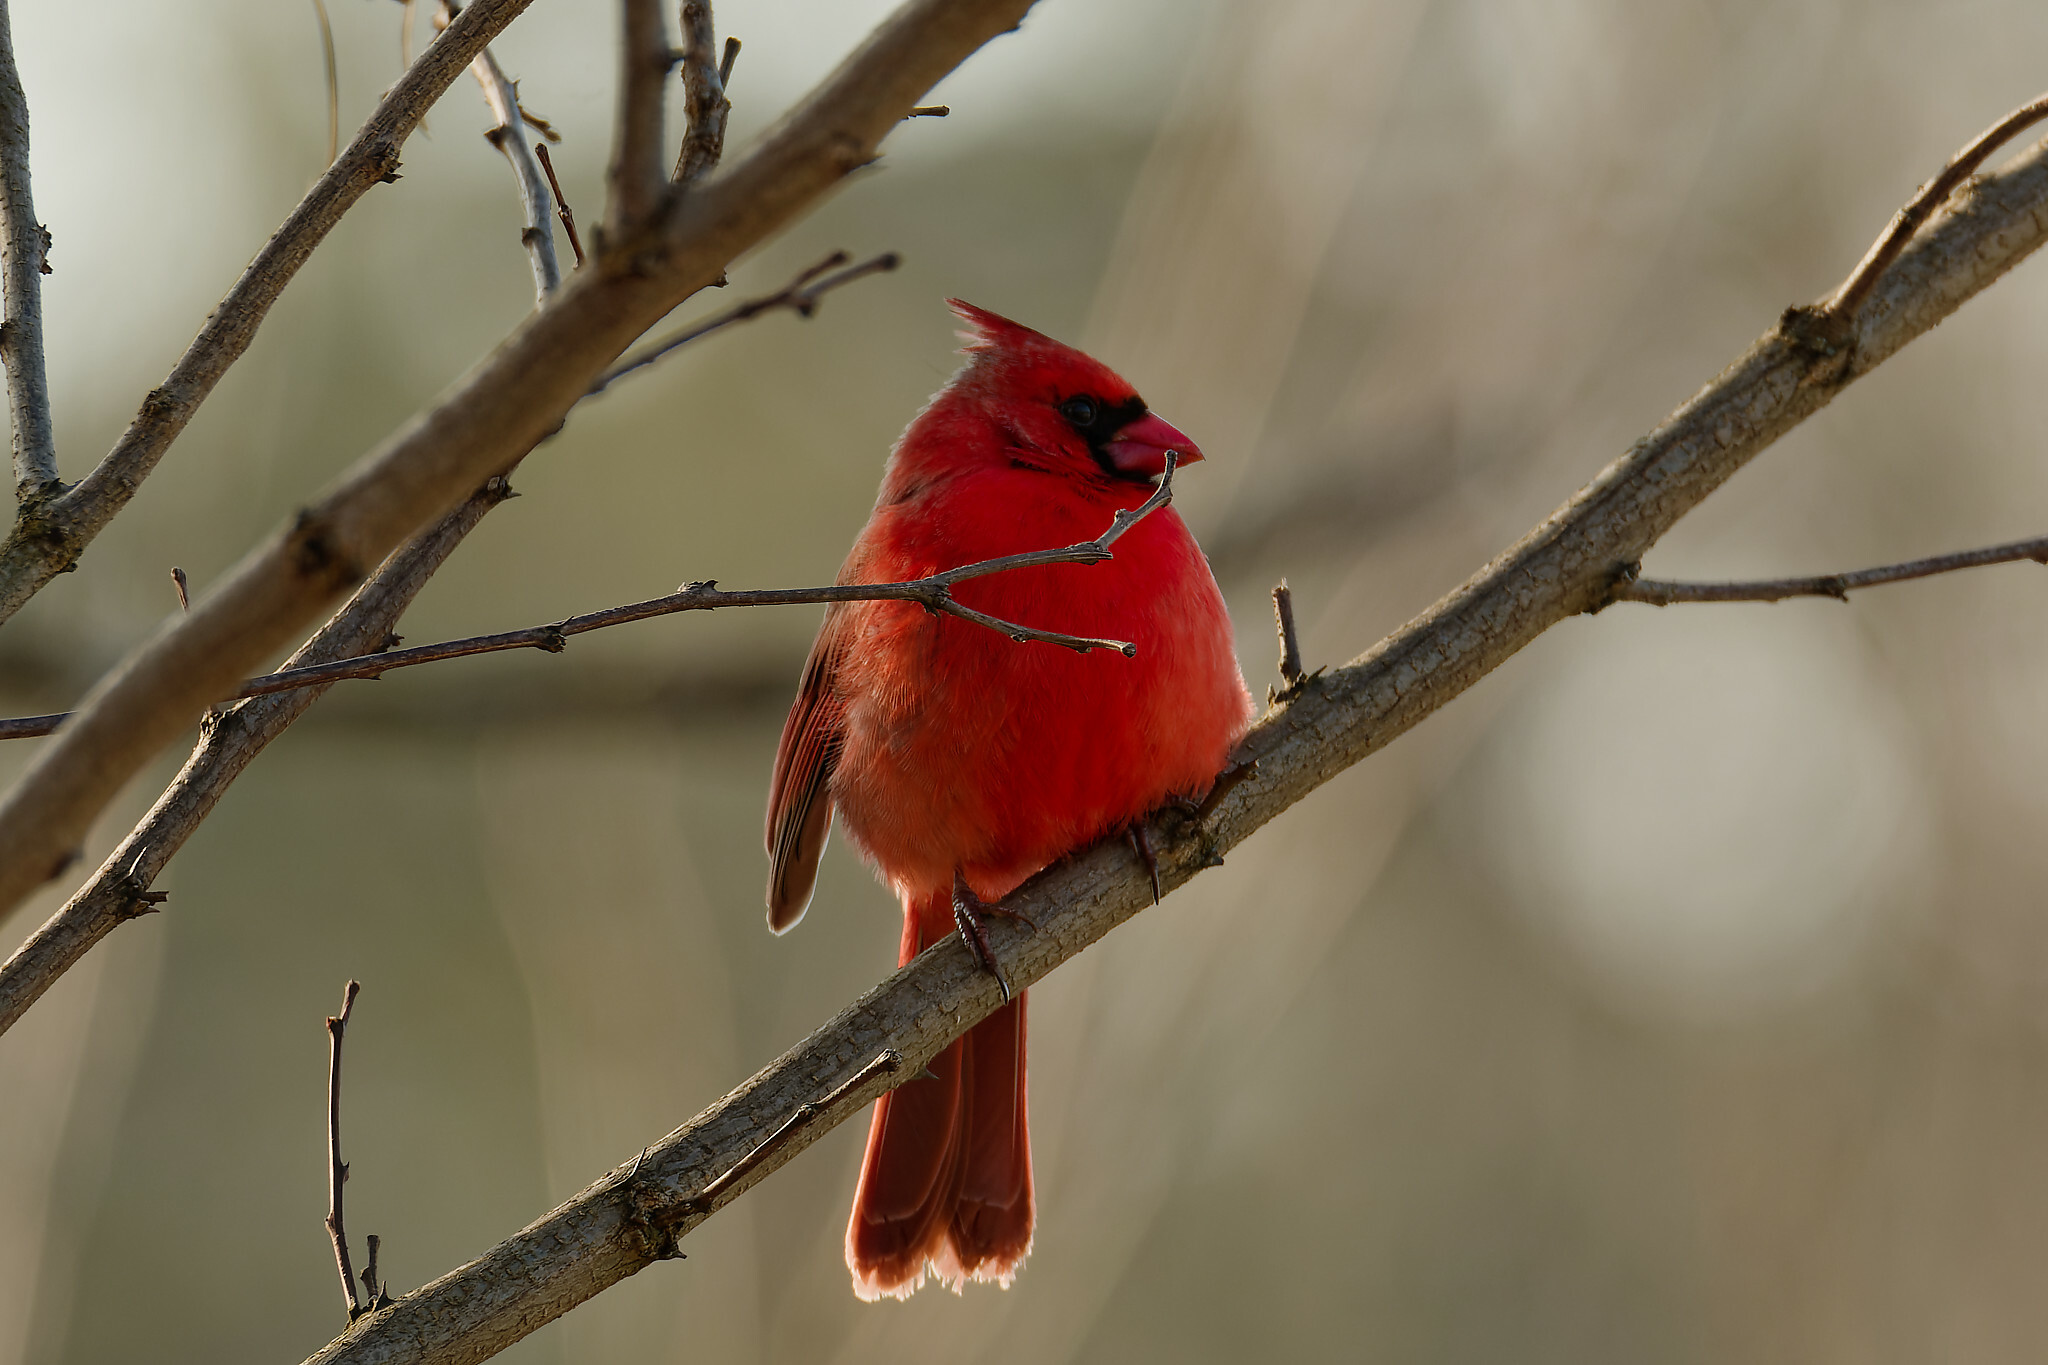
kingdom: Animalia
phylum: Chordata
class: Aves
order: Passeriformes
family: Cardinalidae
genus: Cardinalis
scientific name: Cardinalis cardinalis
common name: Northern cardinal
